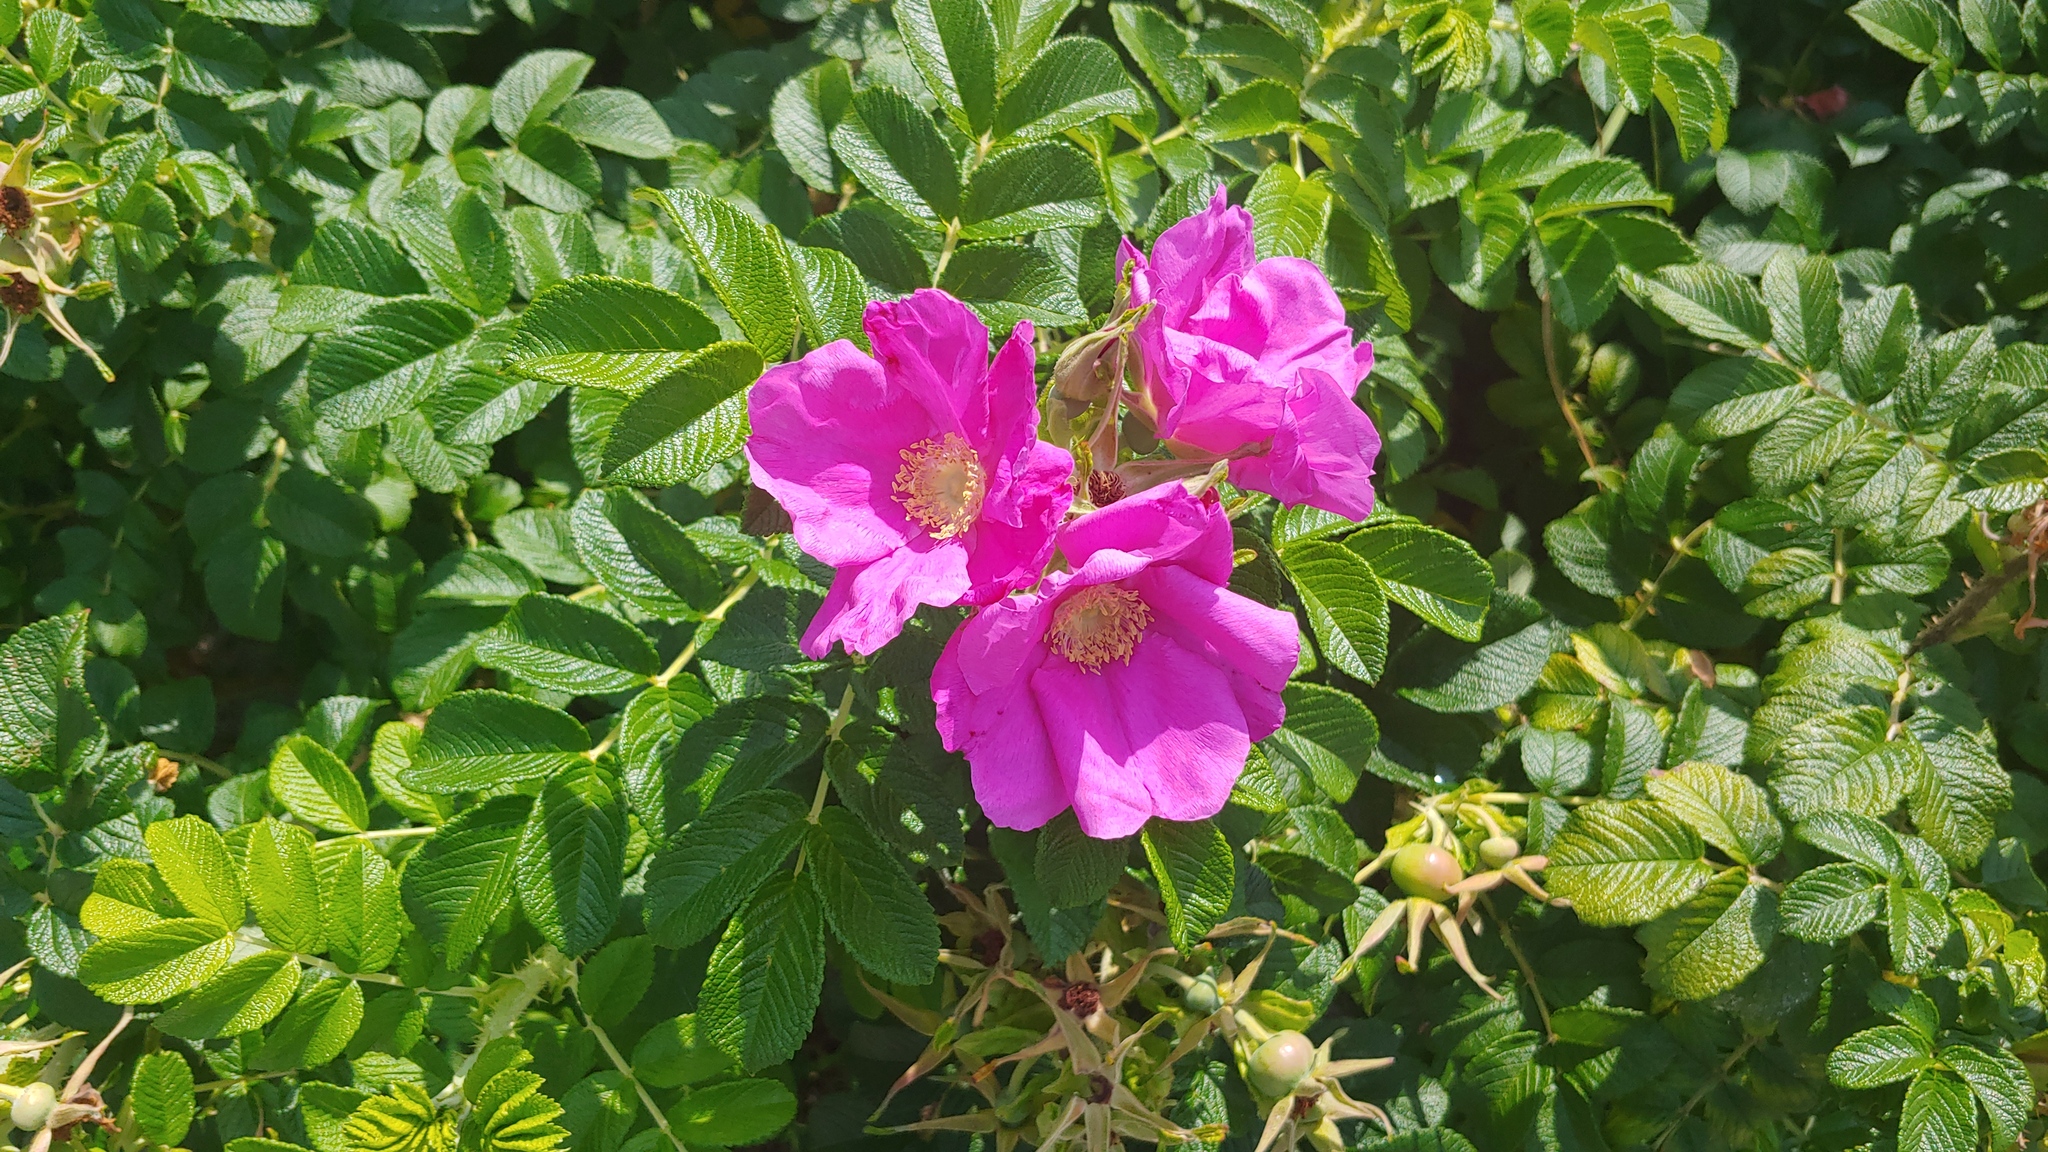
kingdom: Plantae
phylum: Tracheophyta
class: Magnoliopsida
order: Rosales
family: Rosaceae
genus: Rosa
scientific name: Rosa rugosa
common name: Japanese rose
